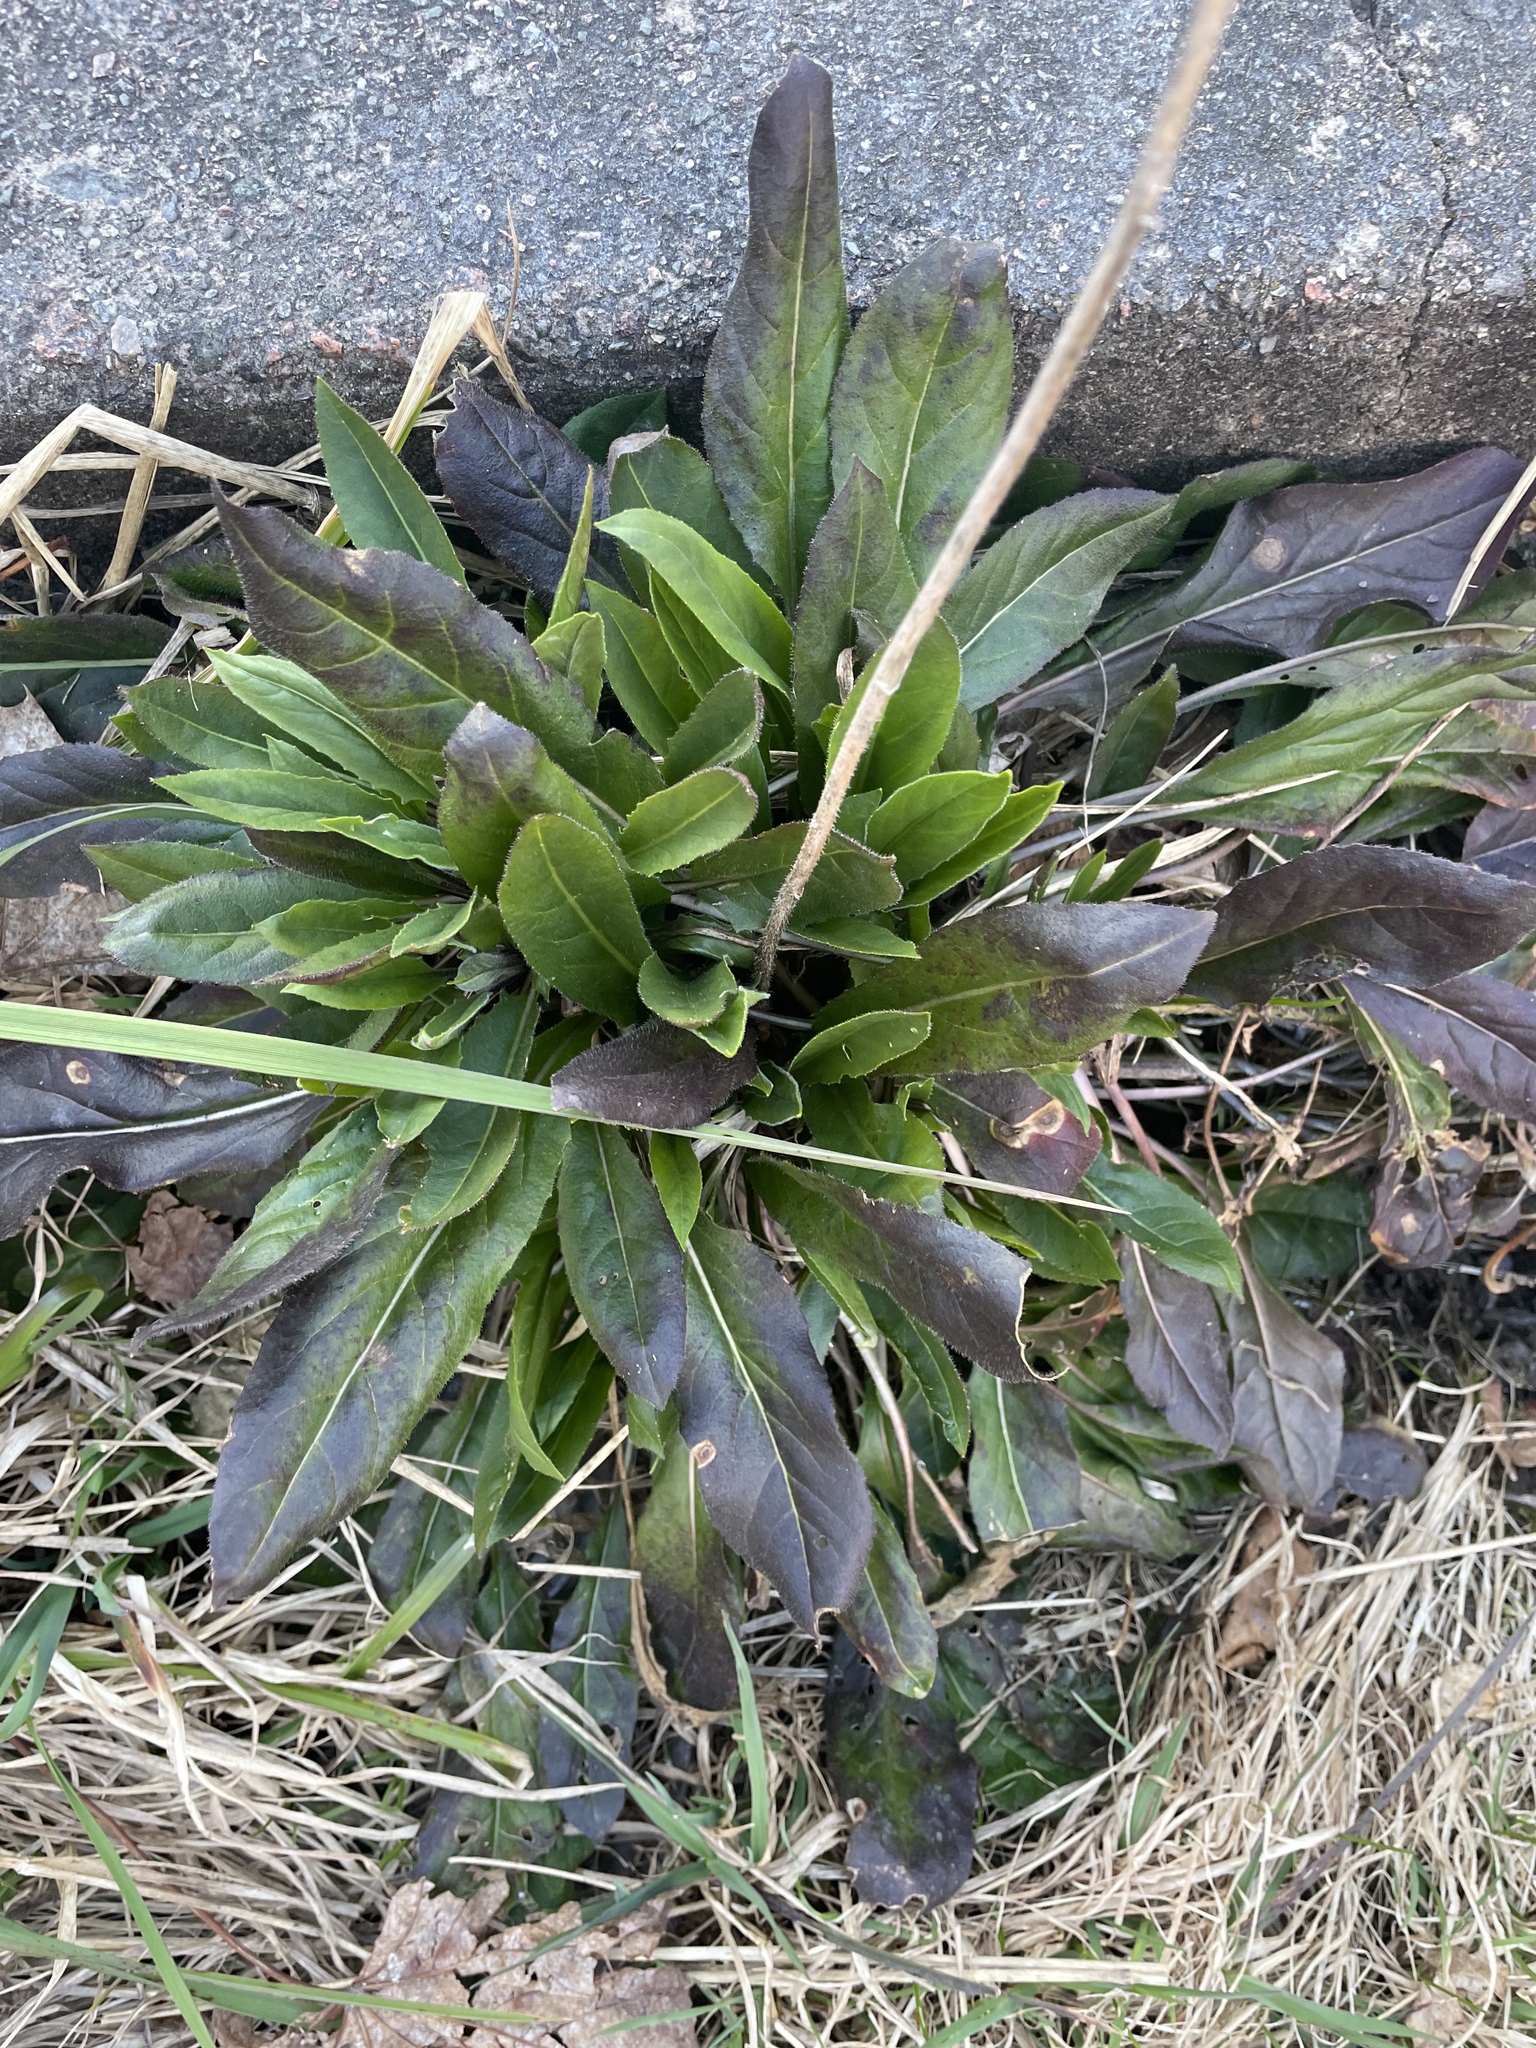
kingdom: Plantae
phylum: Tracheophyta
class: Magnoliopsida
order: Brassicales
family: Brassicaceae
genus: Hesperis
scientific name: Hesperis matronalis
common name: Dame's-violet
